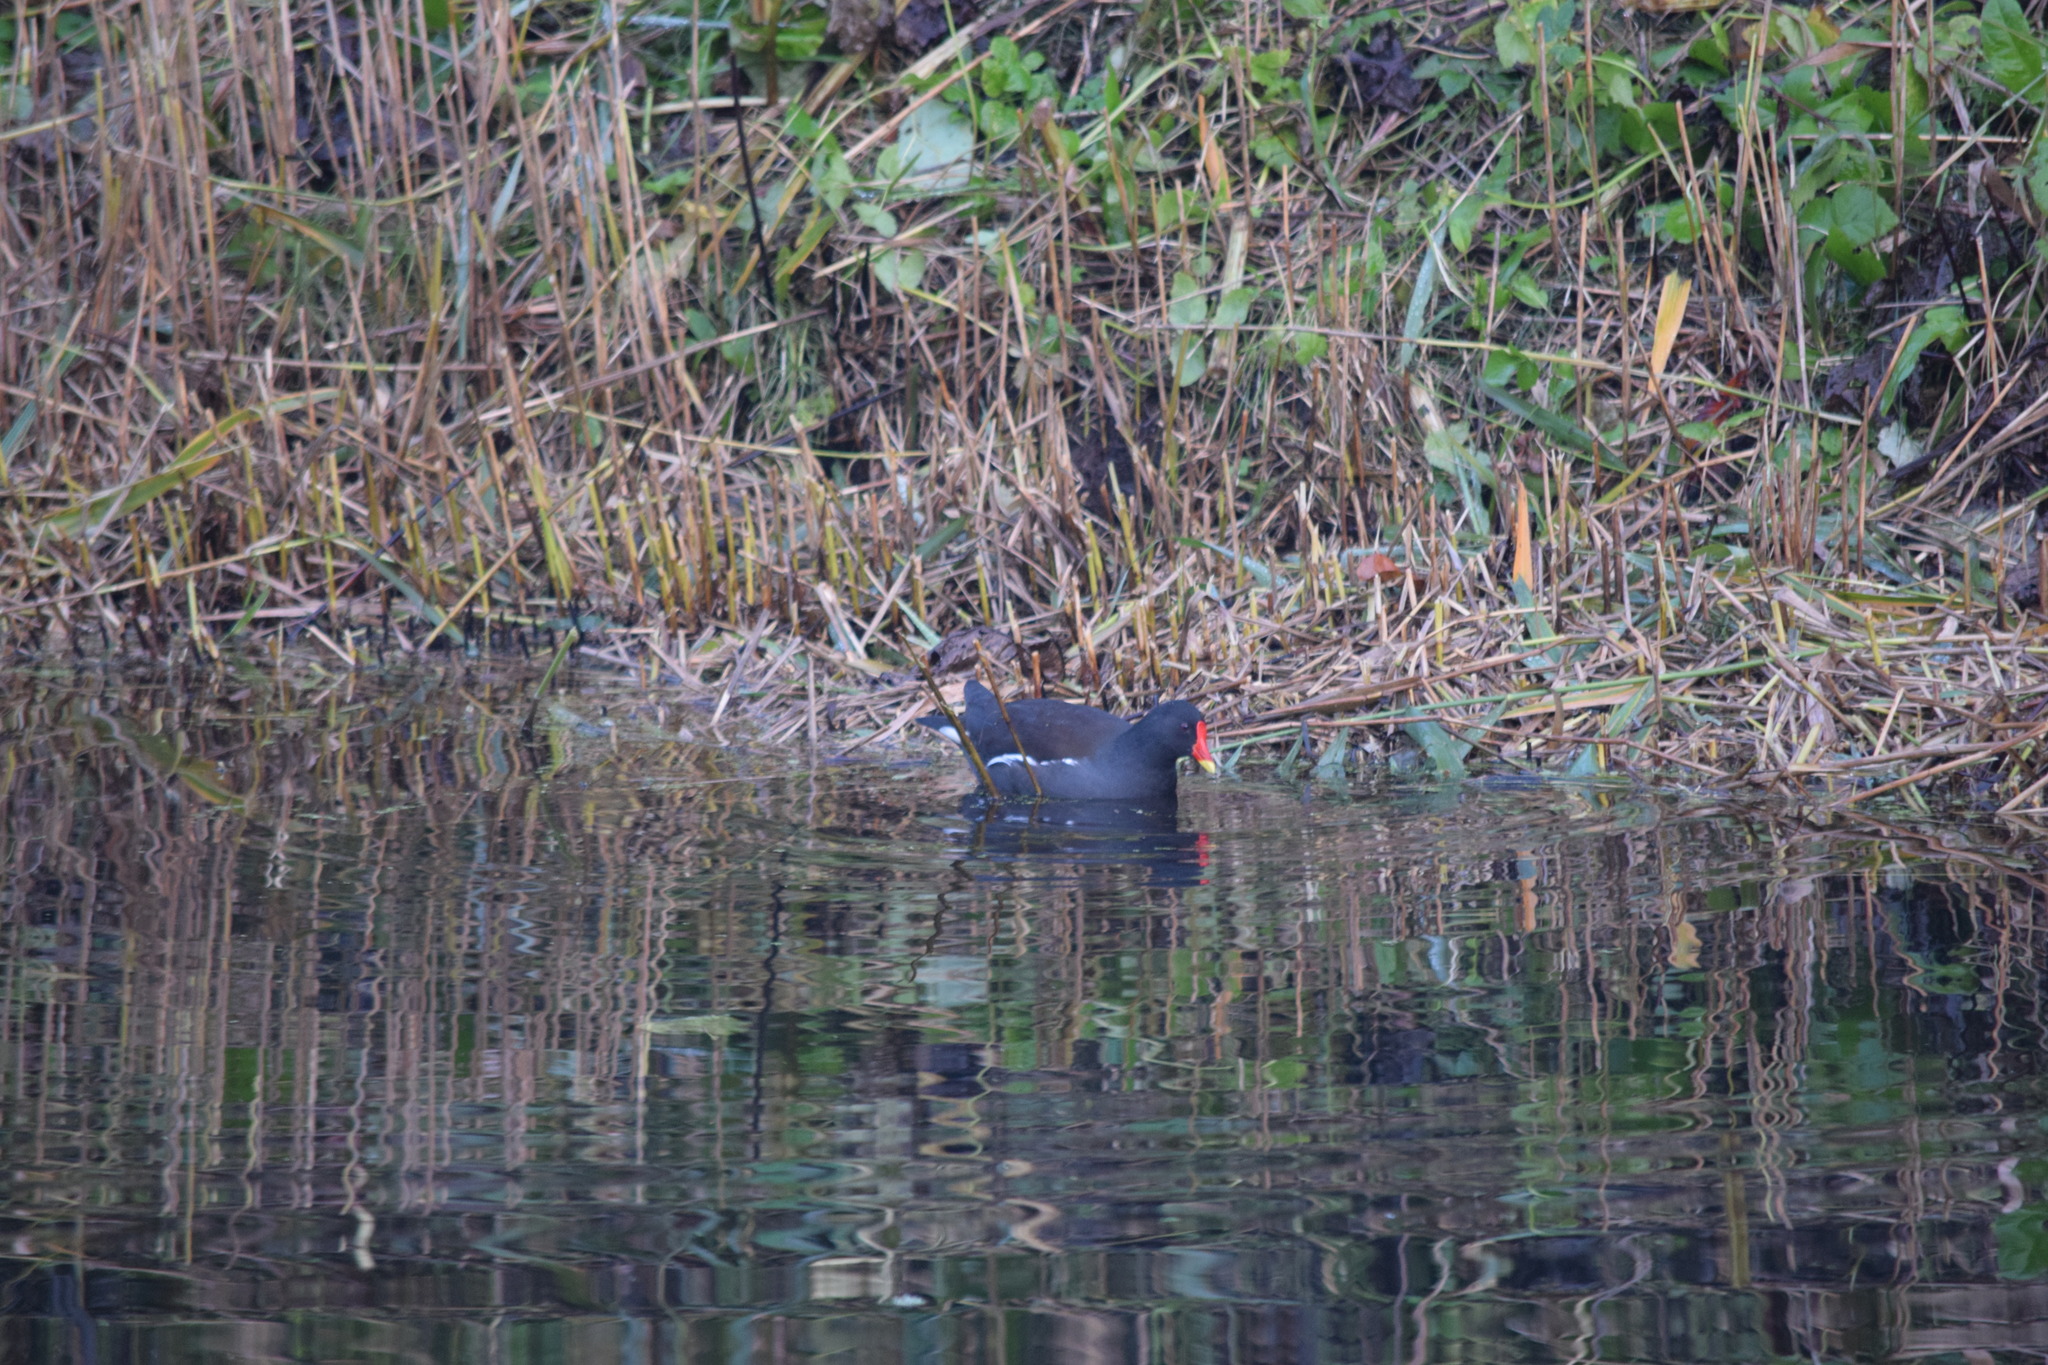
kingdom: Animalia
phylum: Chordata
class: Aves
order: Gruiformes
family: Rallidae
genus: Gallinula
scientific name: Gallinula chloropus
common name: Common moorhen
